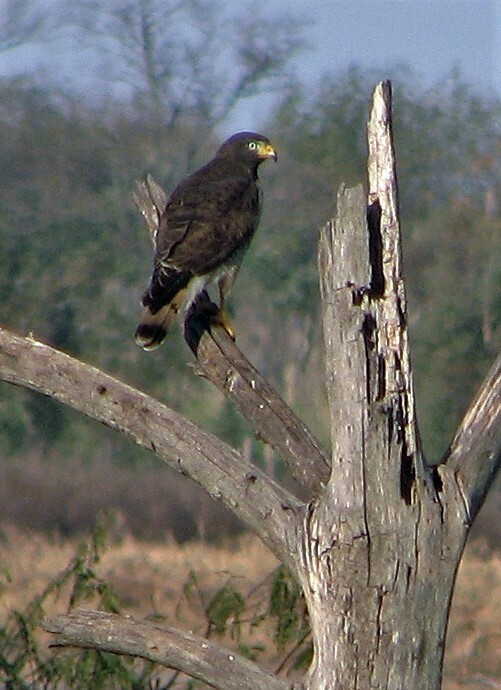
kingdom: Animalia
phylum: Chordata
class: Aves
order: Accipitriformes
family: Accipitridae
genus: Rupornis
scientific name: Rupornis magnirostris
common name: Roadside hawk
